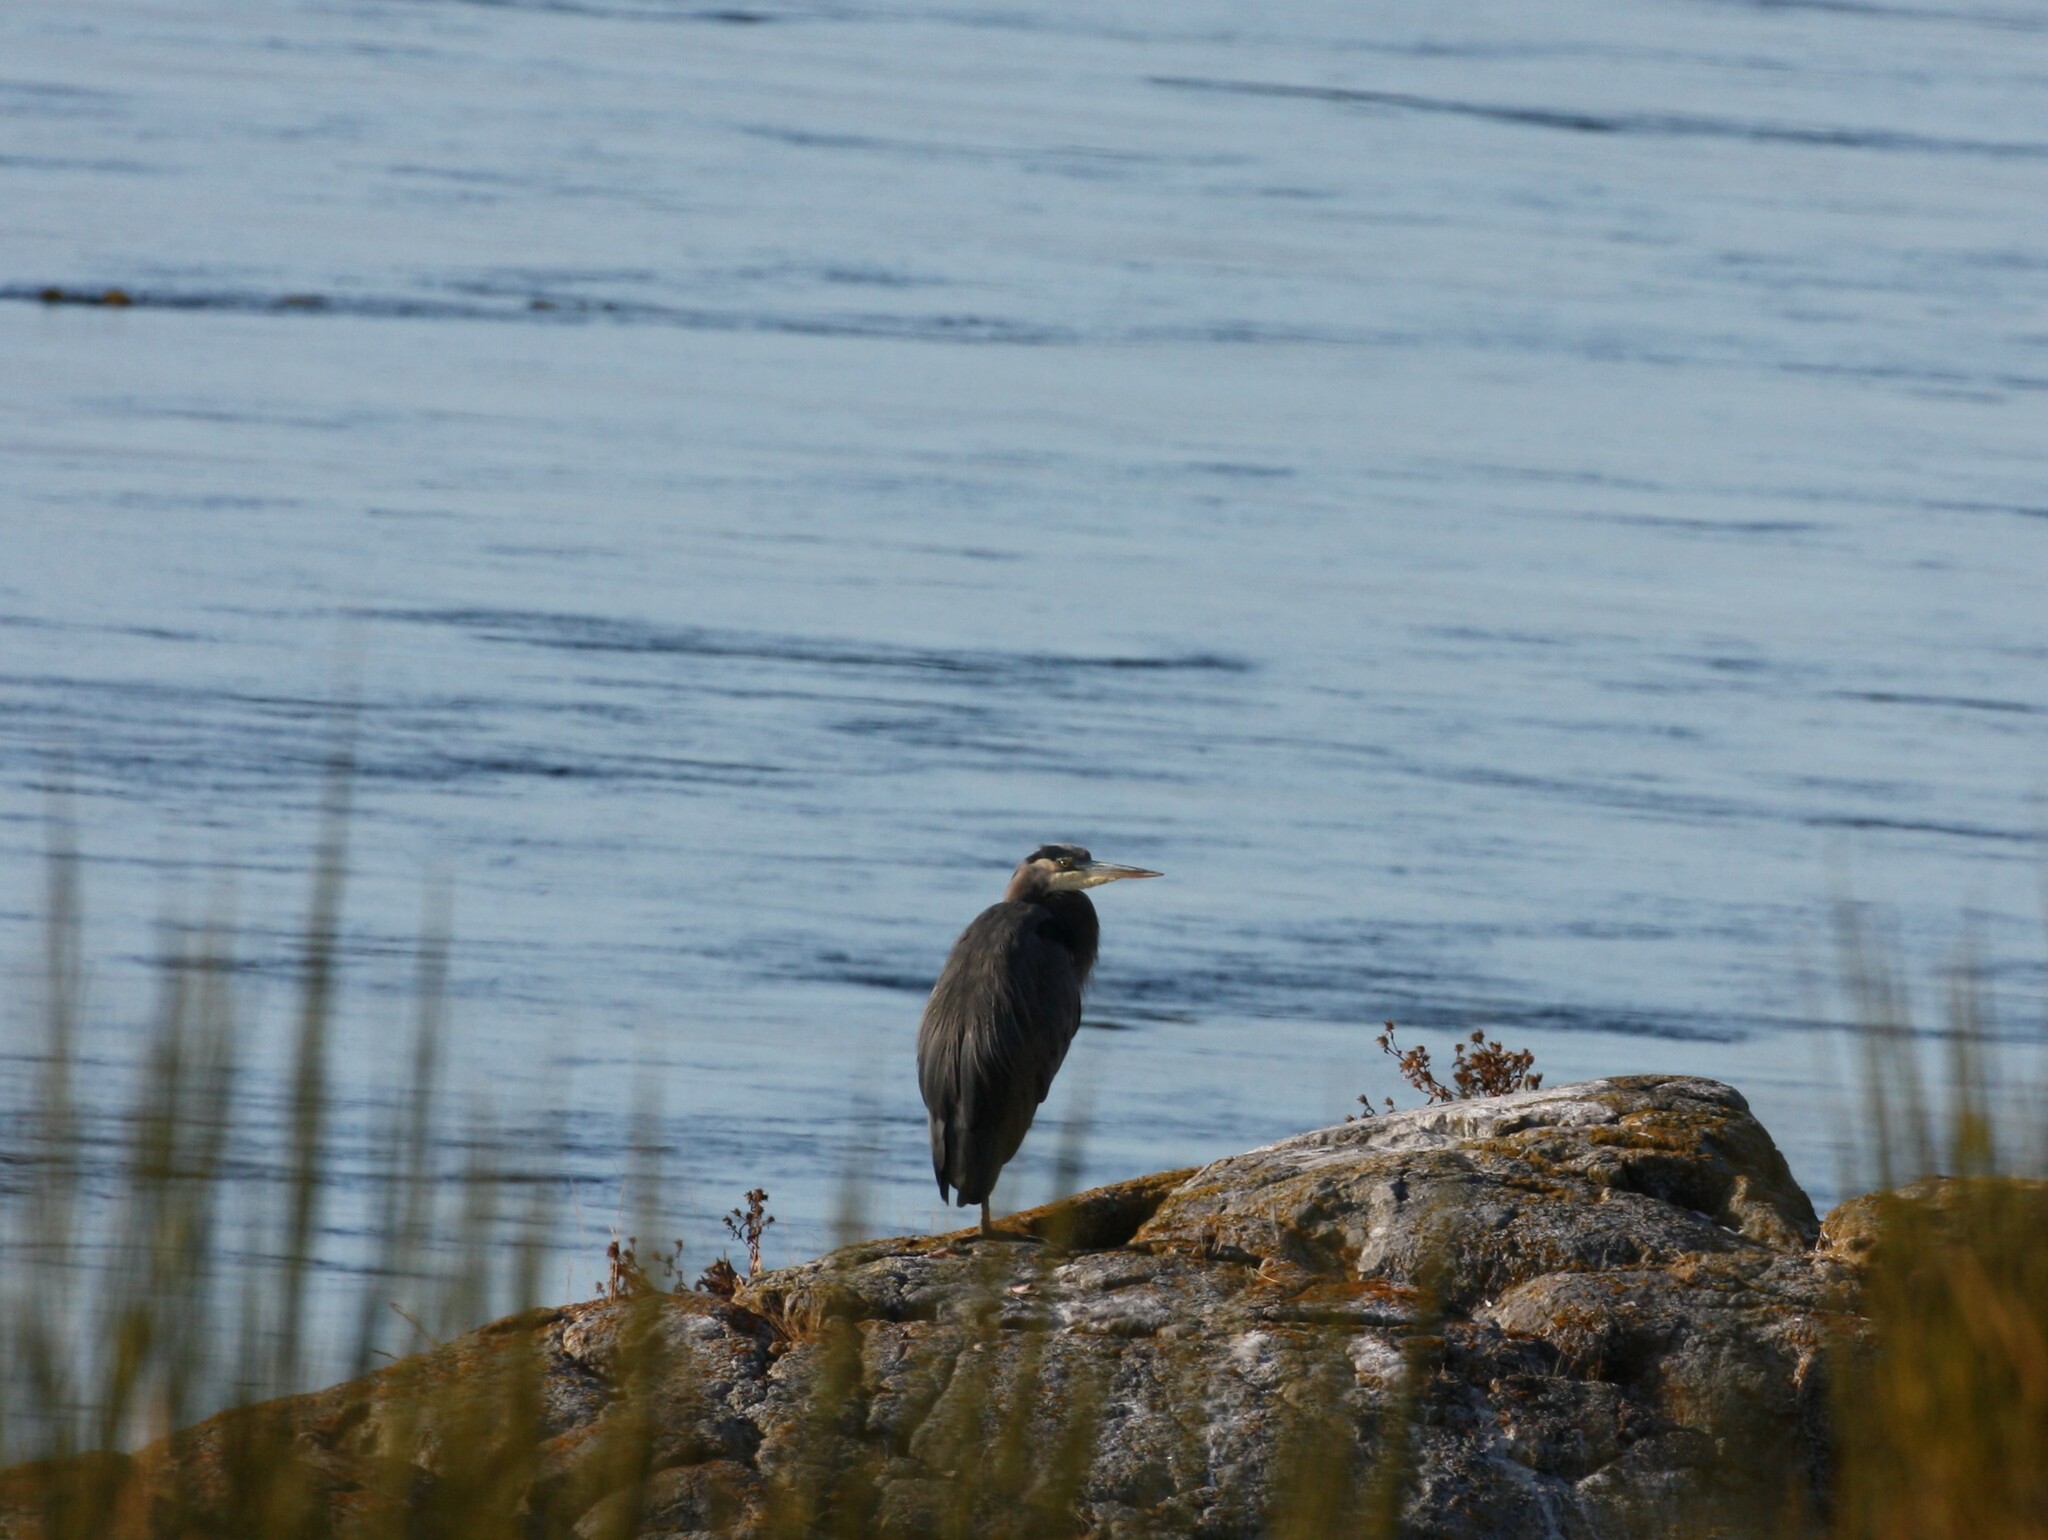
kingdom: Animalia
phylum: Chordata
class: Aves
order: Pelecaniformes
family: Ardeidae
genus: Ardea
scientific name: Ardea herodias
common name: Great blue heron
